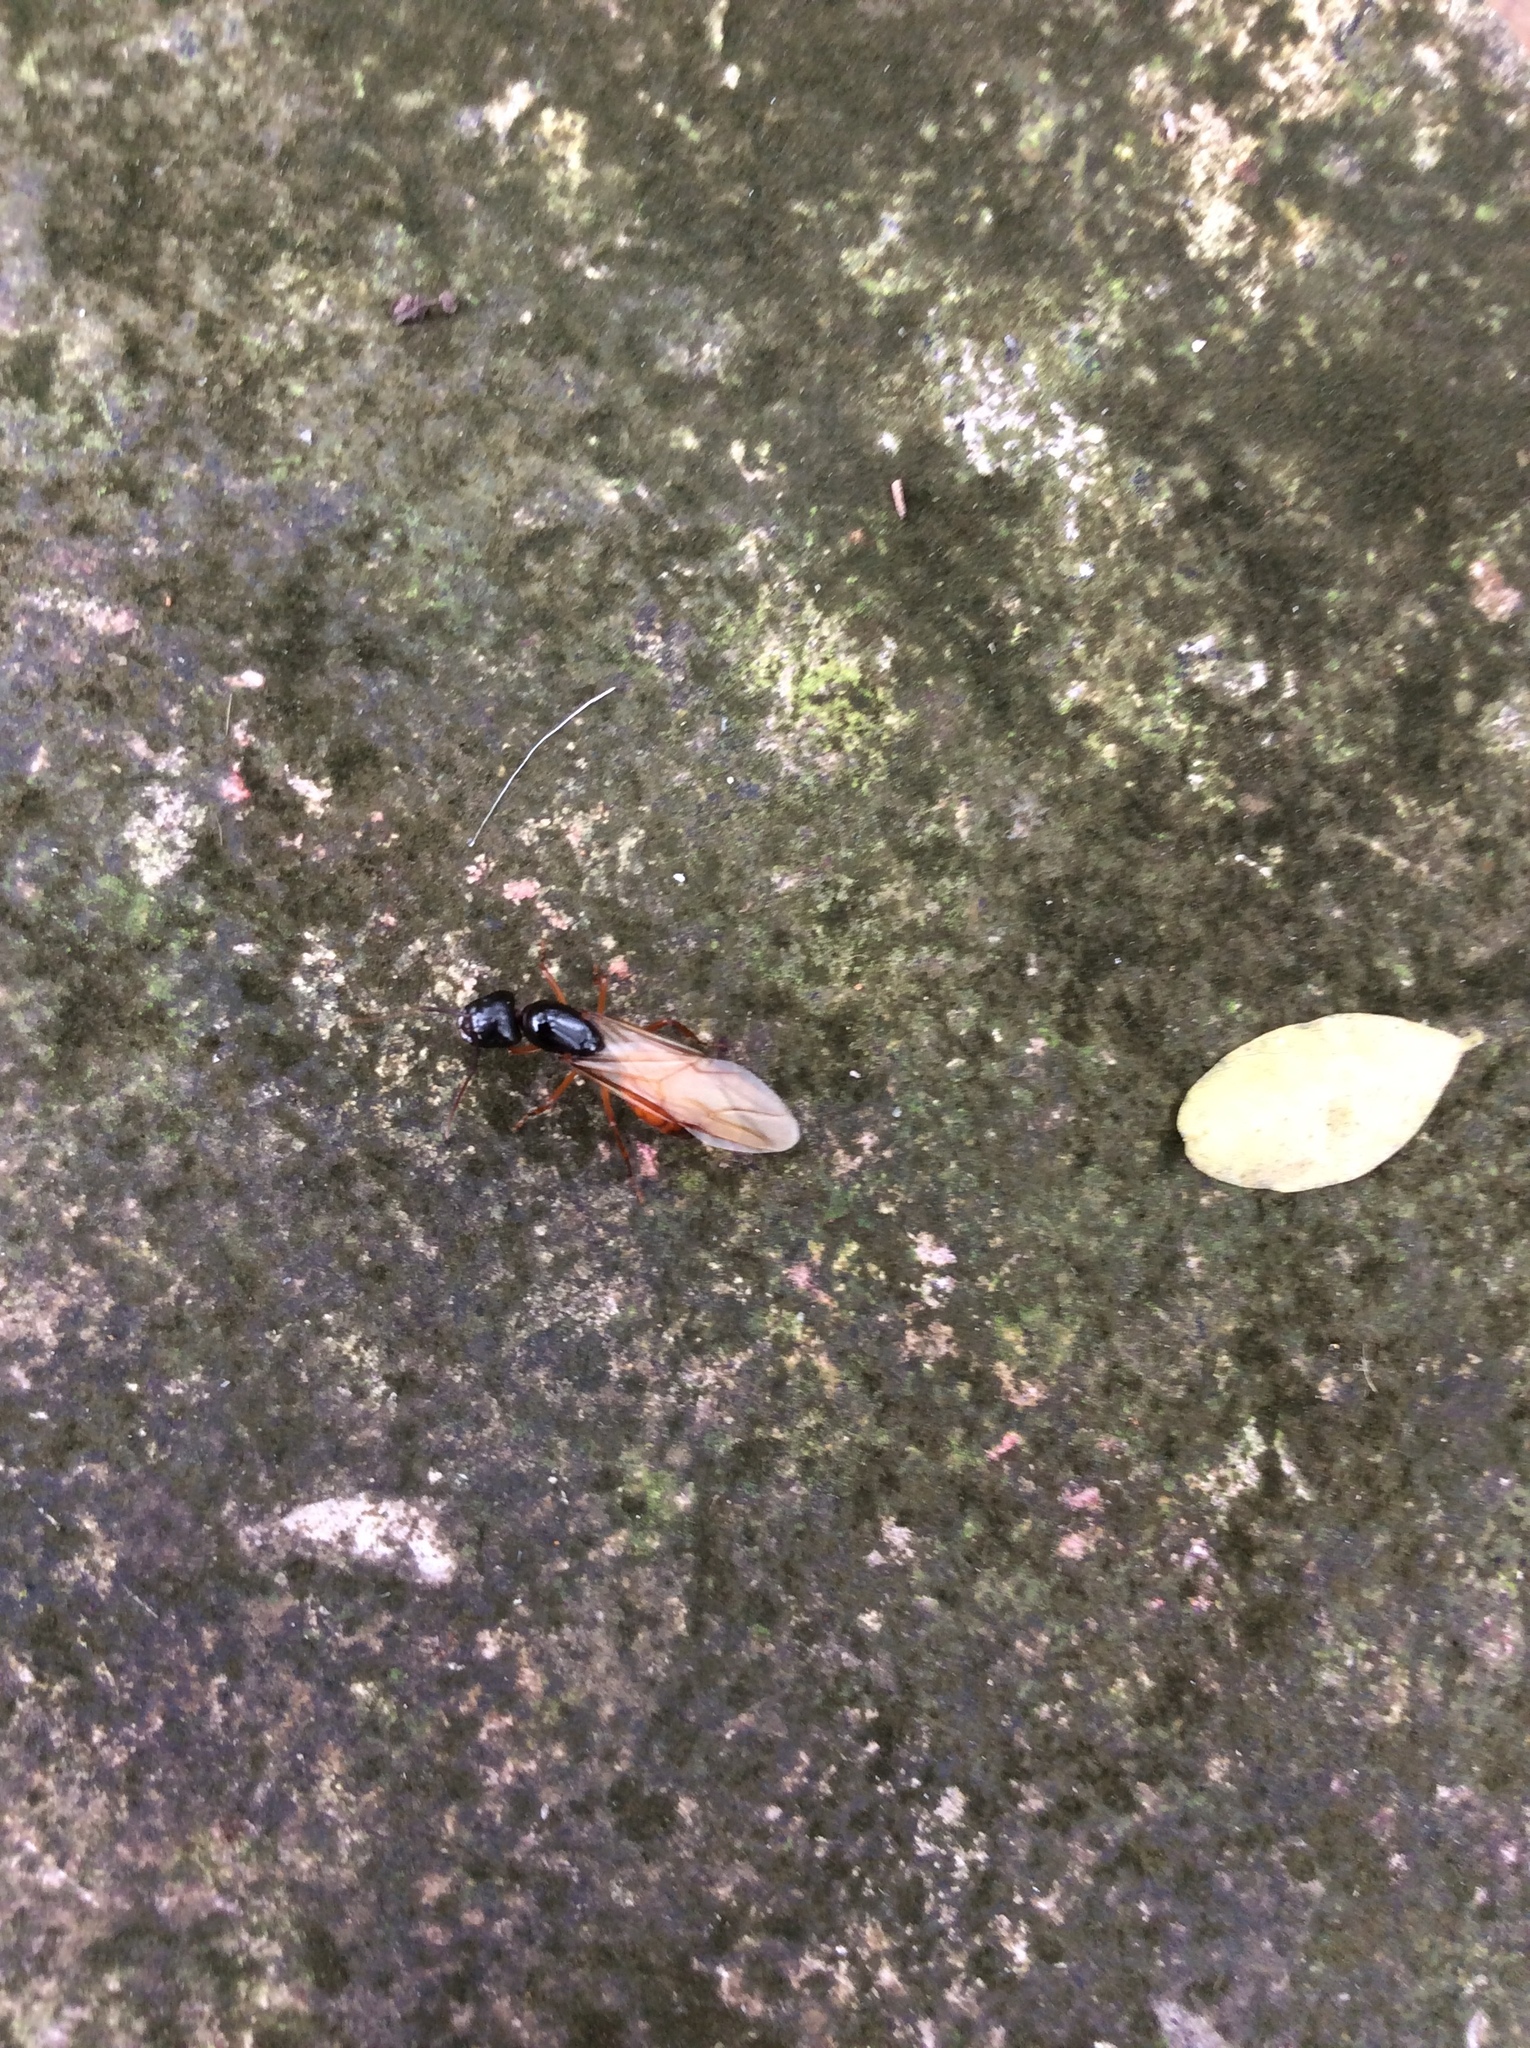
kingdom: Animalia
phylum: Arthropoda
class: Insecta
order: Hymenoptera
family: Formicidae
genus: Camponotus
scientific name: Camponotus sansabeanus
